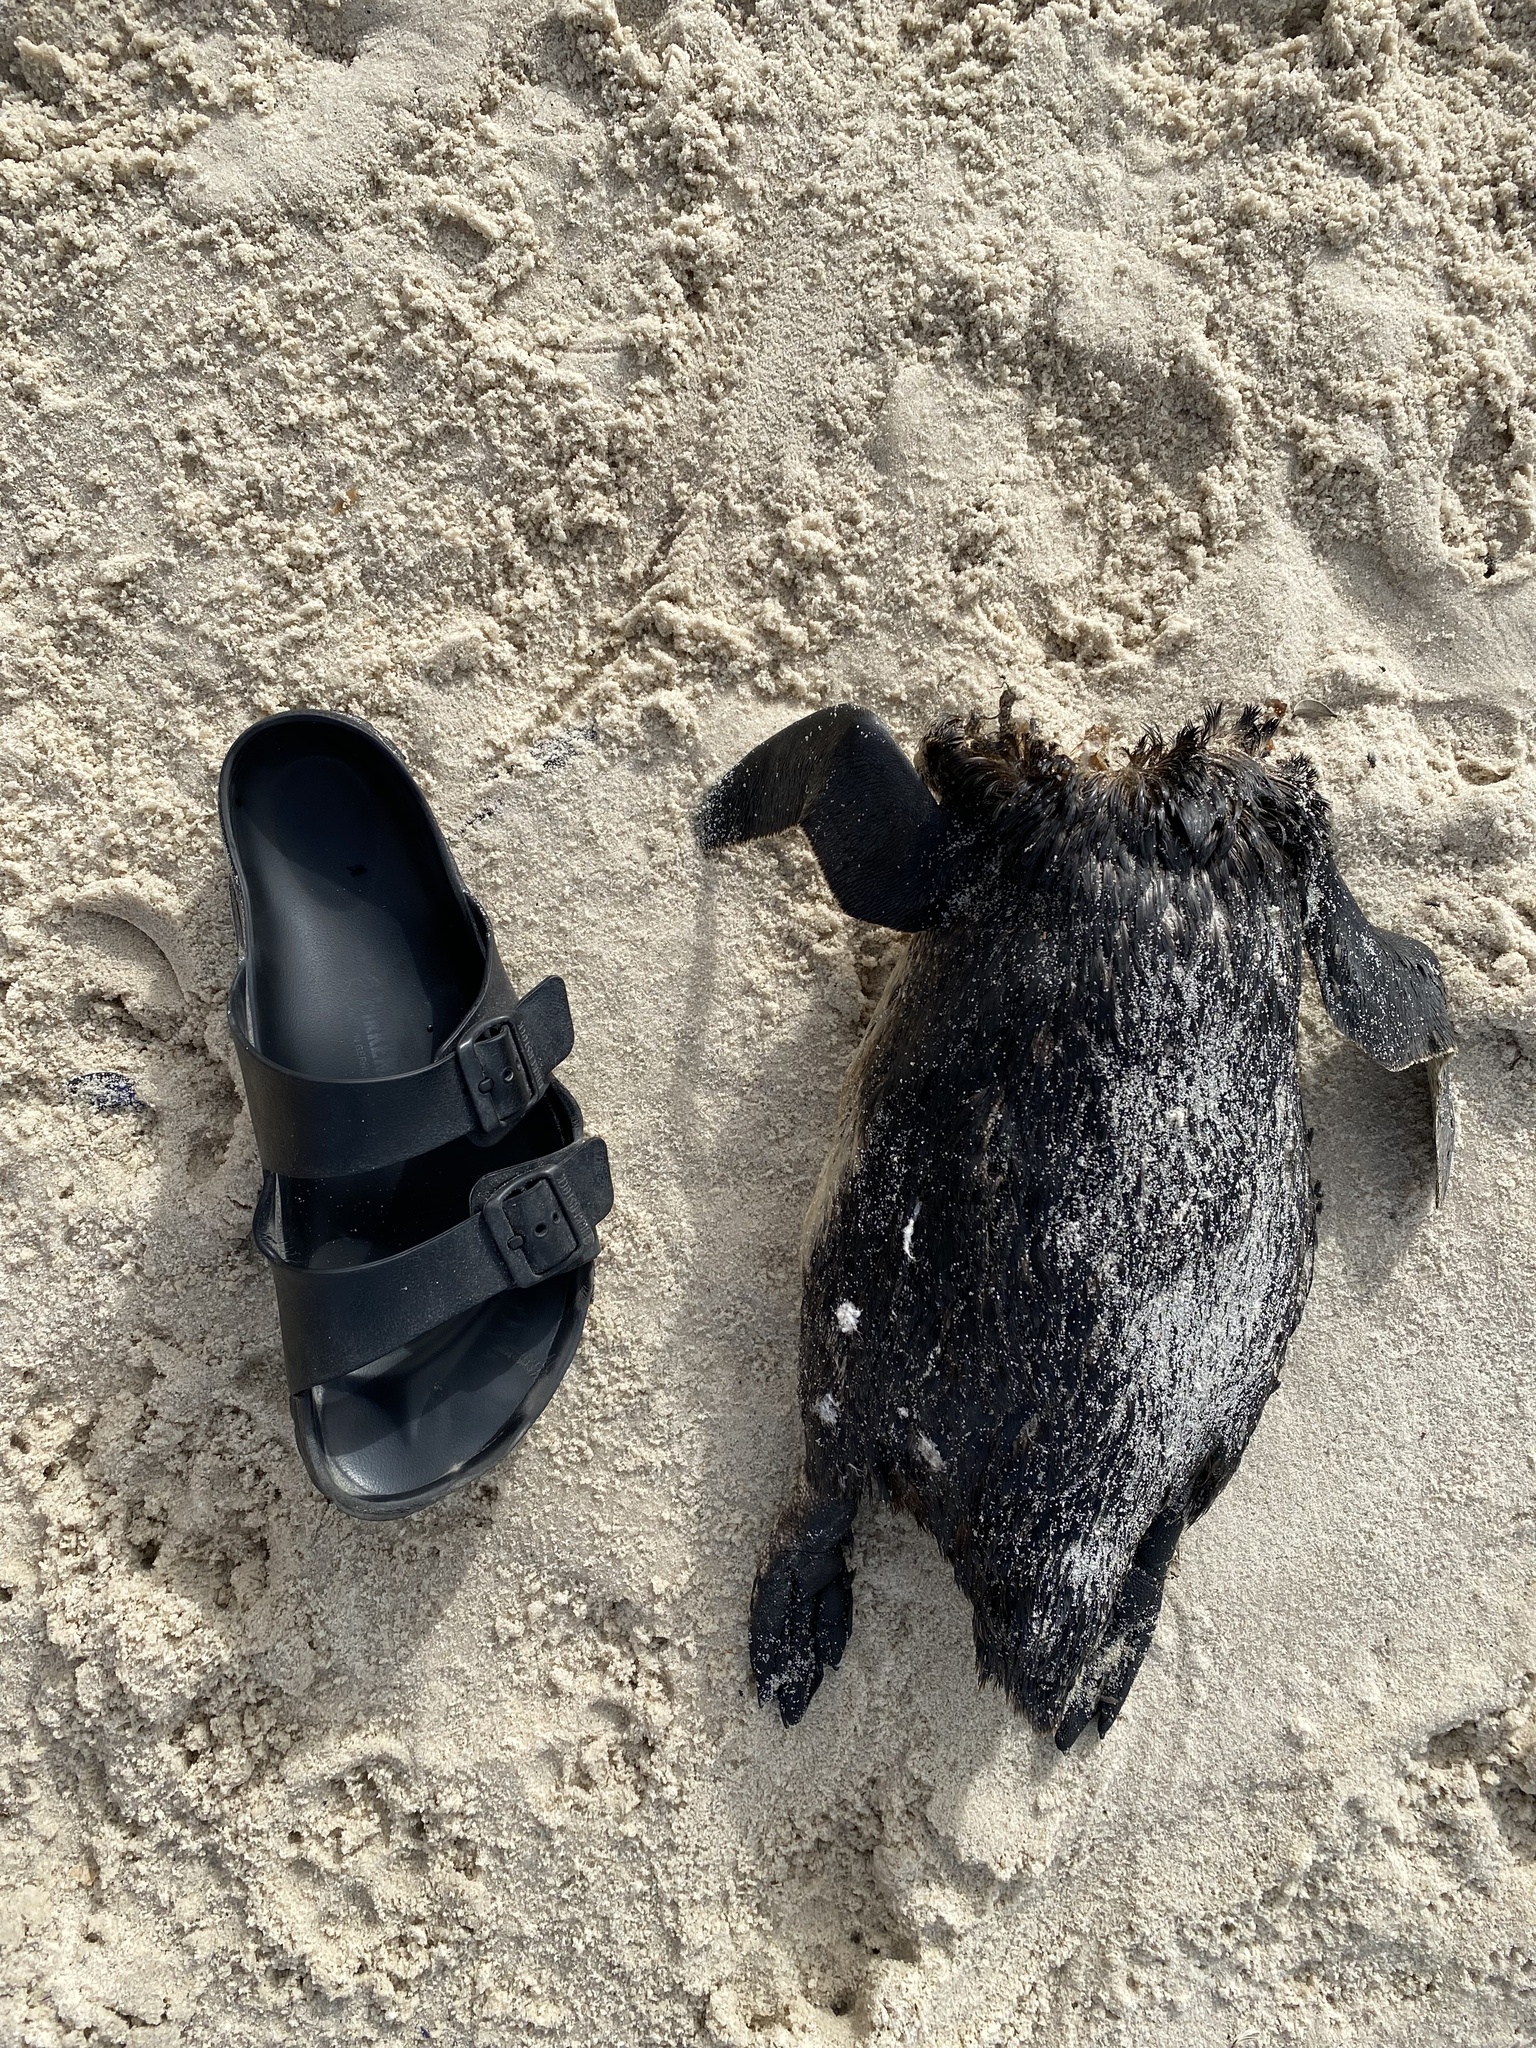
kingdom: Animalia
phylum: Chordata
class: Aves
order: Sphenisciformes
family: Spheniscidae
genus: Spheniscus
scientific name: Spheniscus demersus
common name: African penguin
